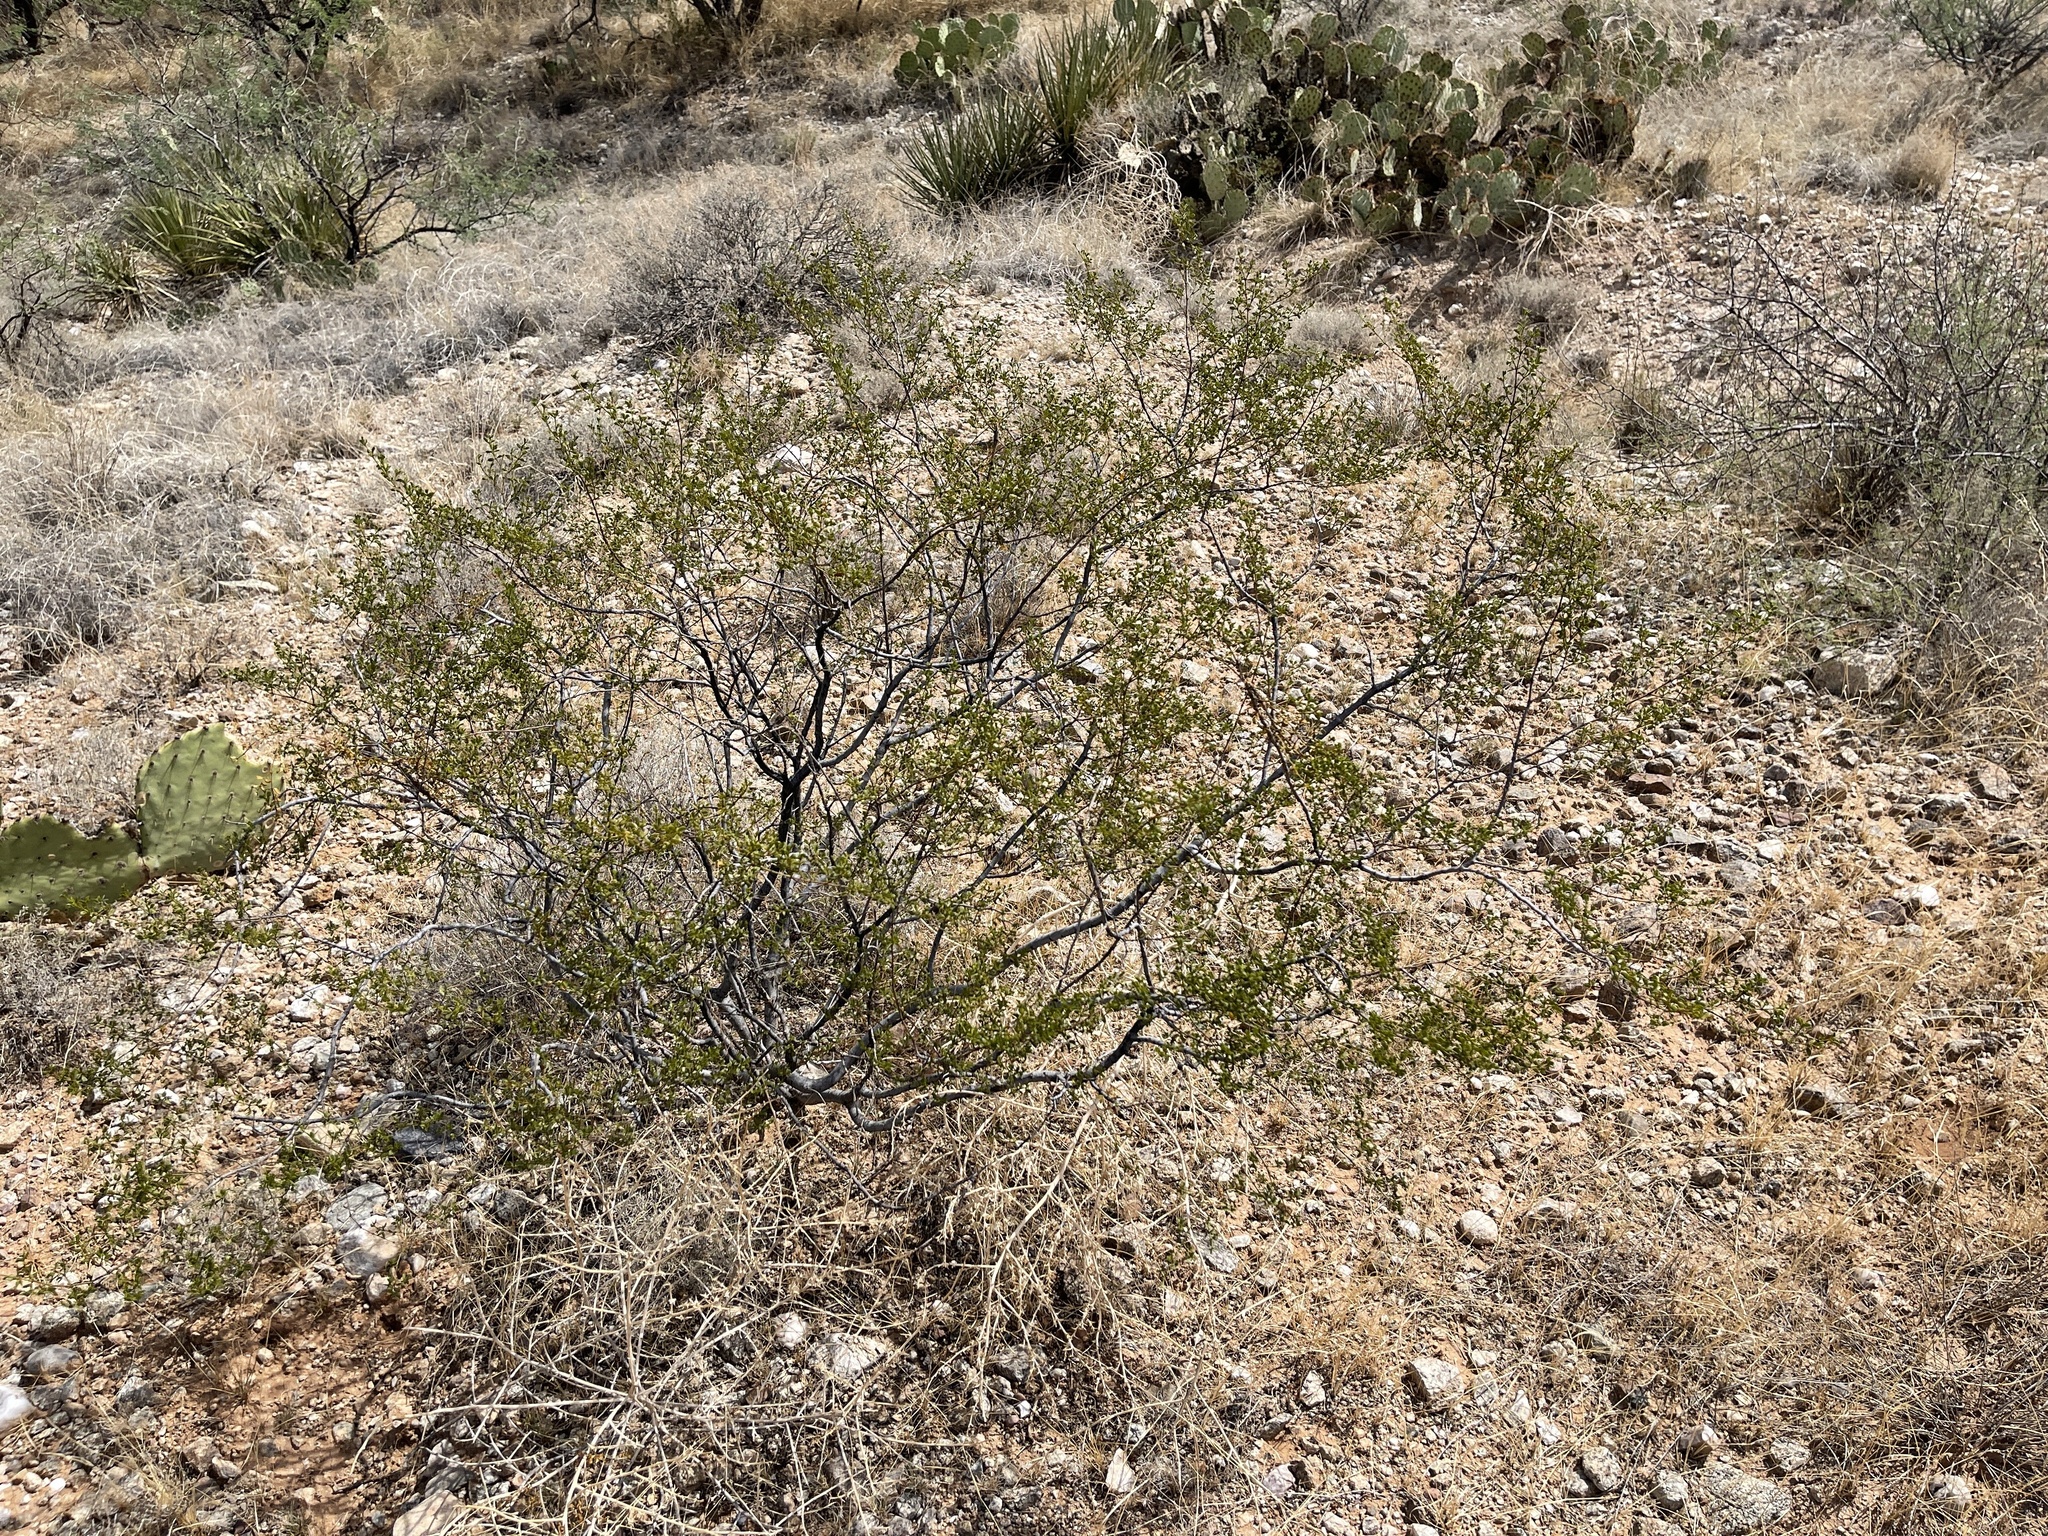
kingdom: Plantae
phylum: Tracheophyta
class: Magnoliopsida
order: Zygophyllales
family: Zygophyllaceae
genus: Larrea
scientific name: Larrea tridentata
